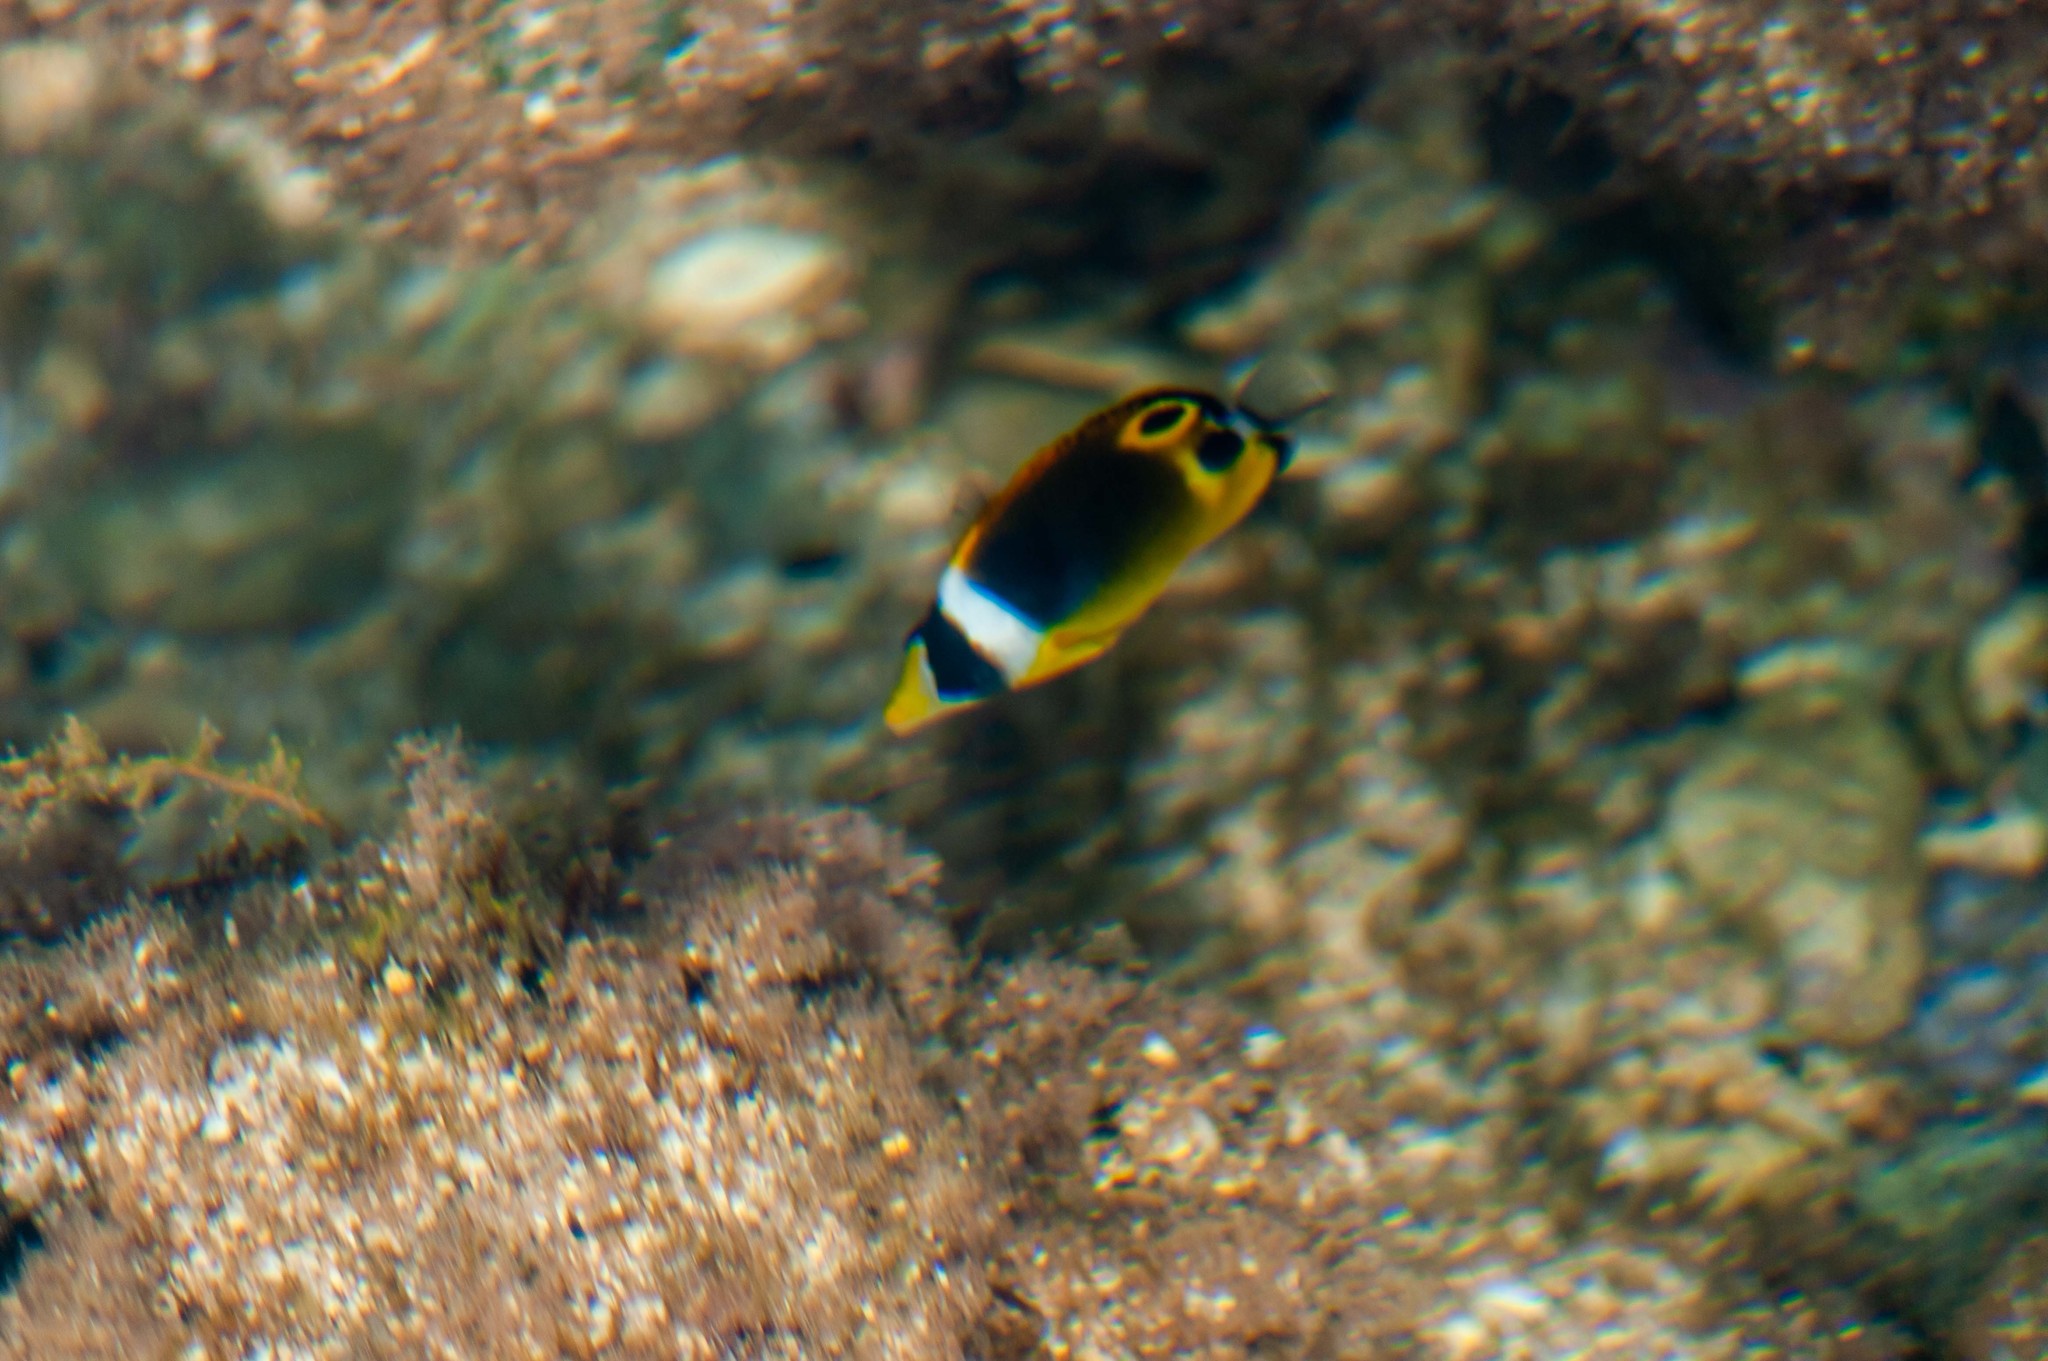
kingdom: Animalia
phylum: Chordata
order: Perciformes
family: Chaetodontidae
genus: Chaetodon
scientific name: Chaetodon lunula
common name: Raccoon butterflyfish
